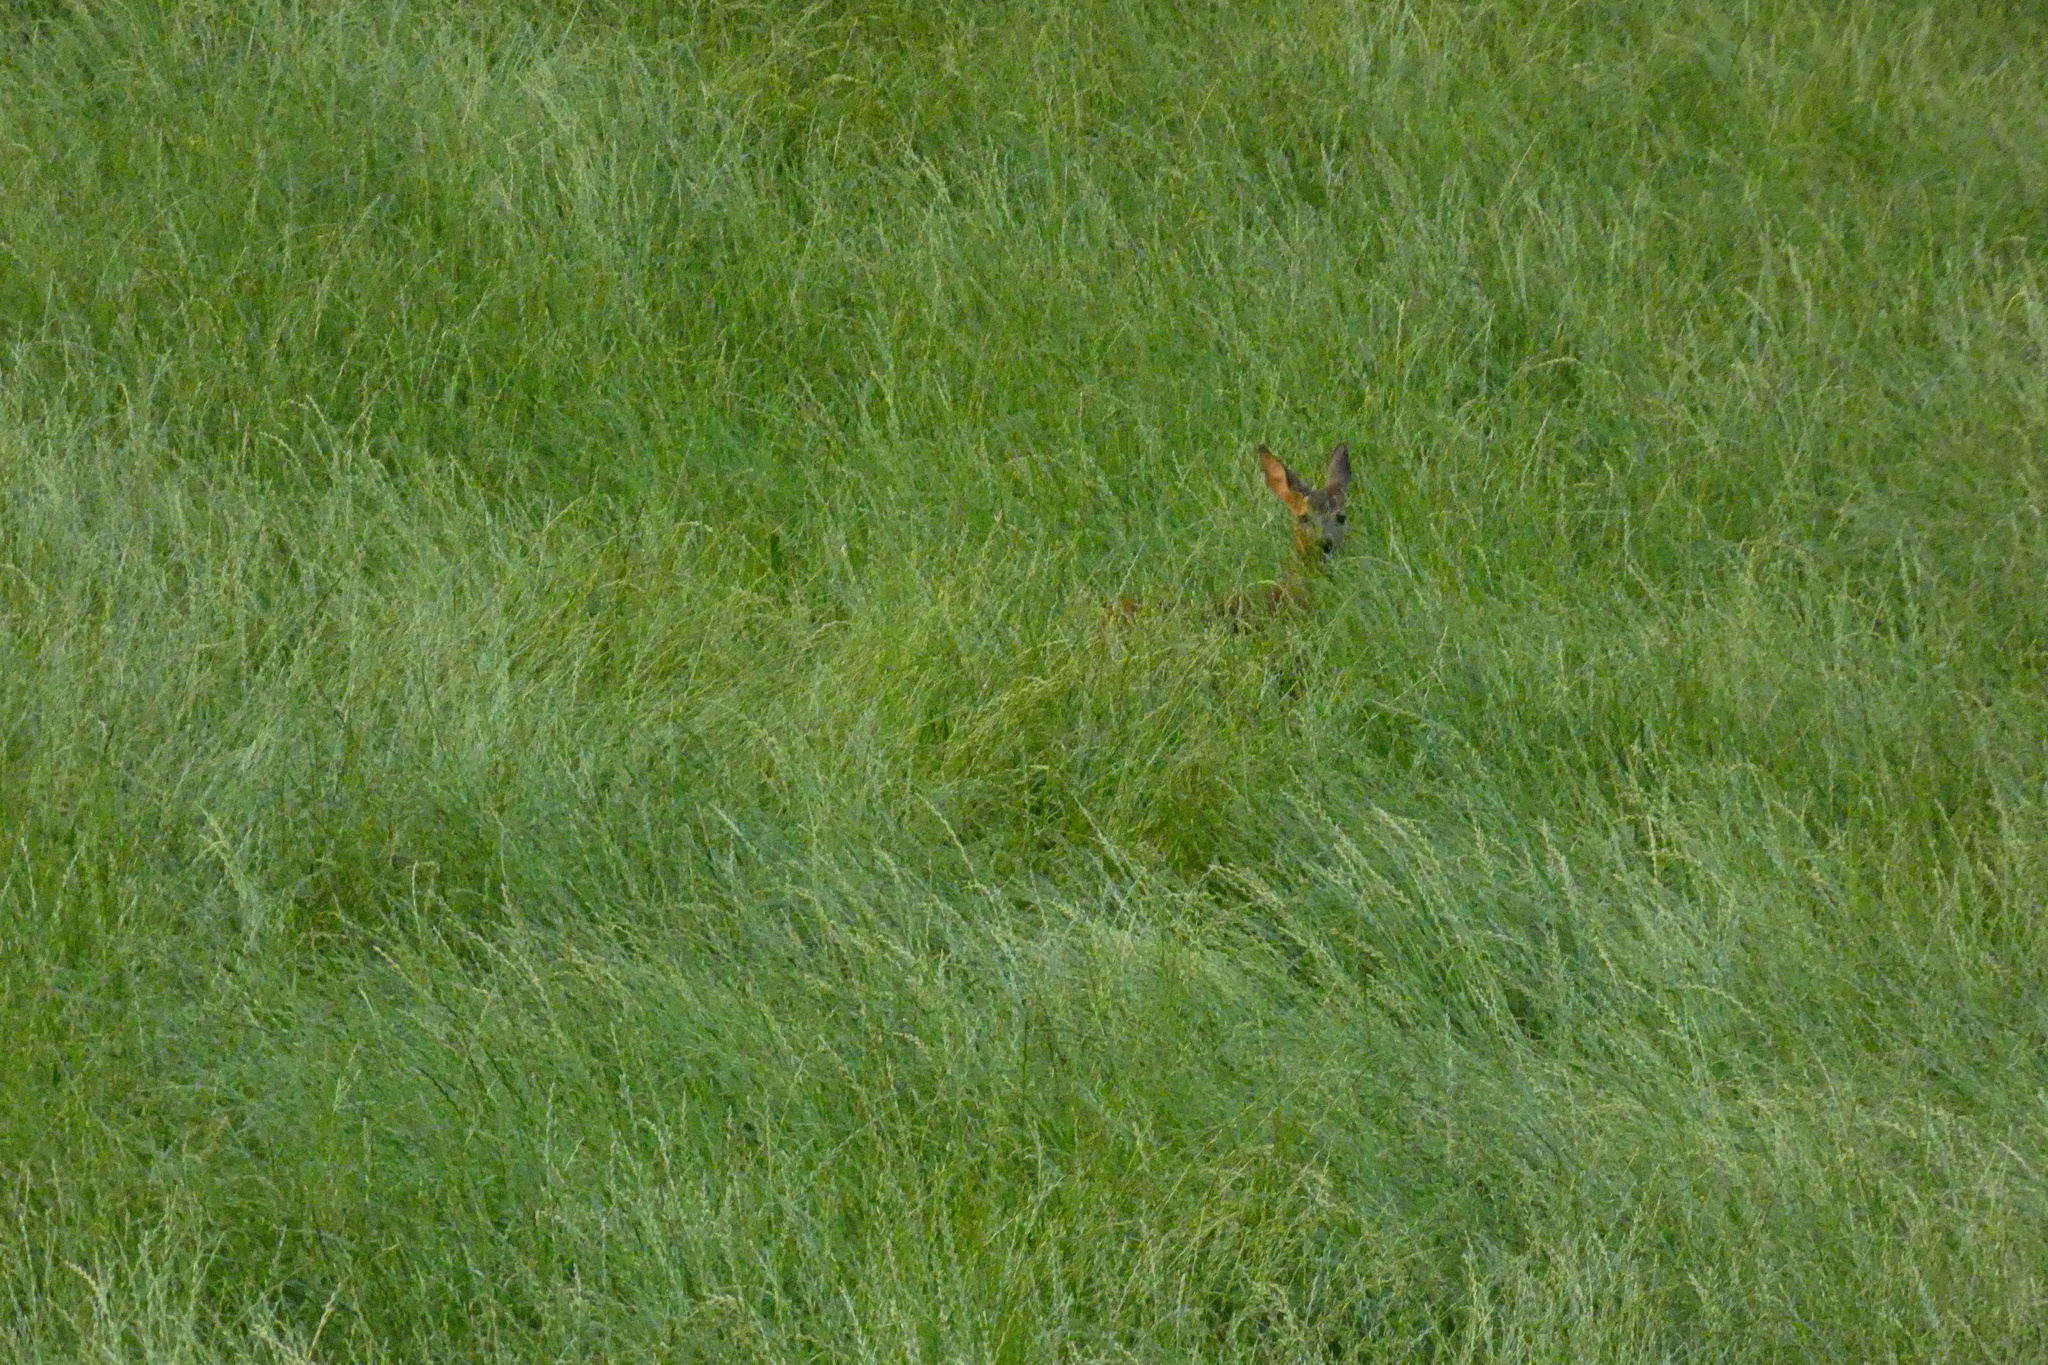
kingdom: Animalia
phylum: Chordata
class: Mammalia
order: Artiodactyla
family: Cervidae
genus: Capreolus
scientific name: Capreolus capreolus
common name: Western roe deer
